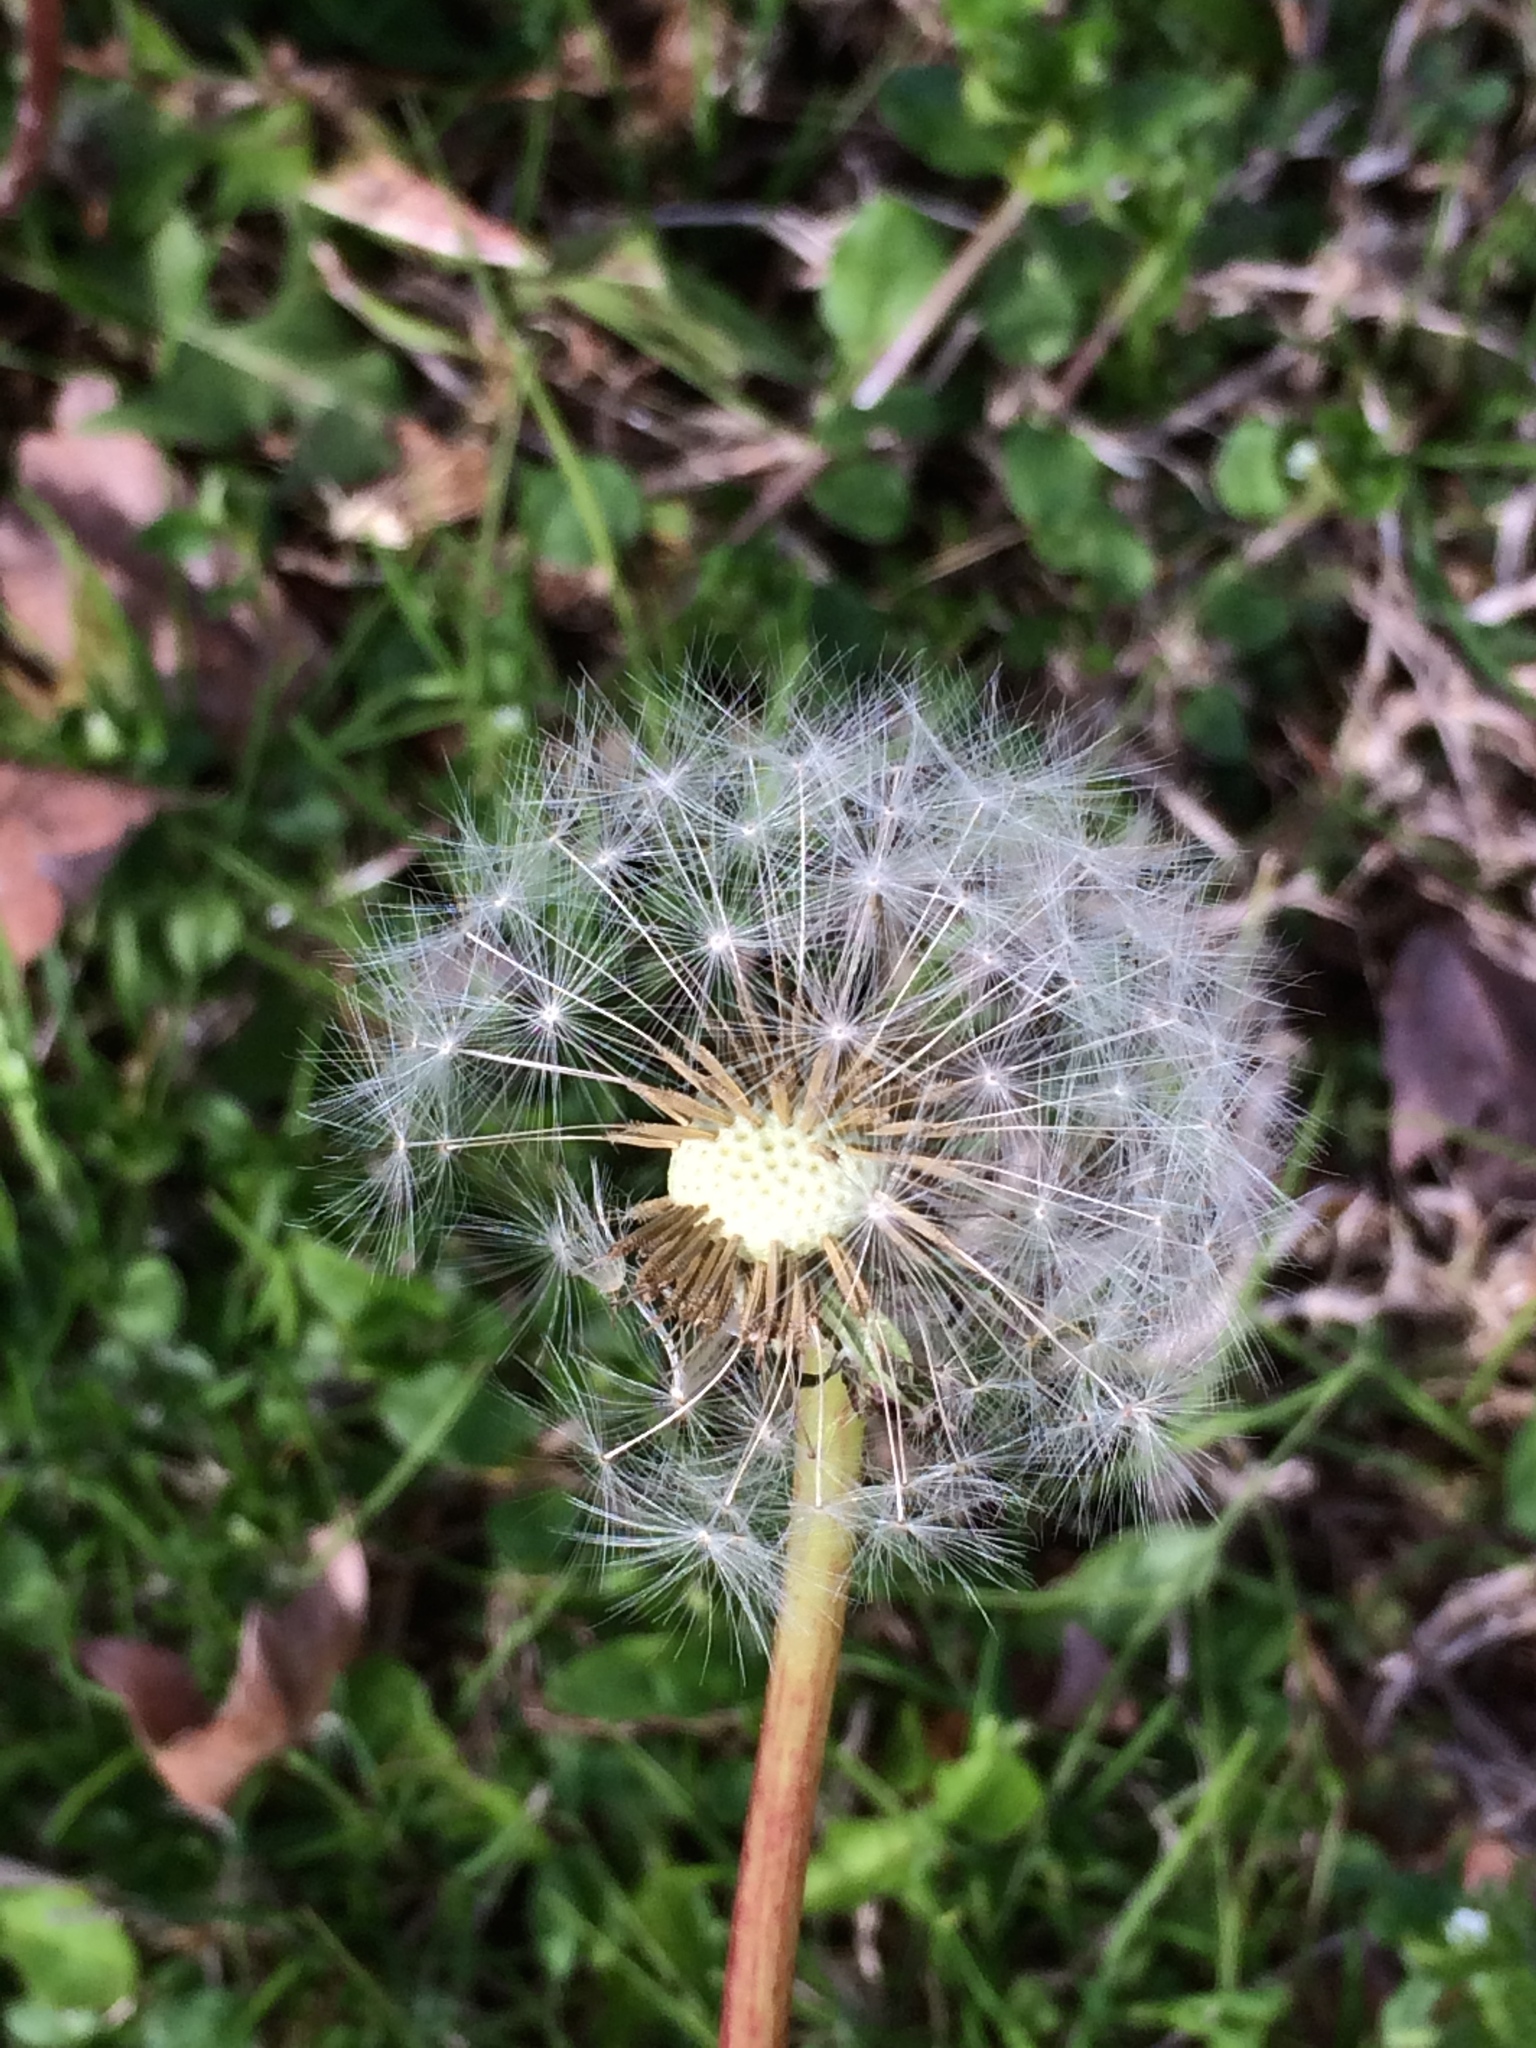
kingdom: Plantae
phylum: Tracheophyta
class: Magnoliopsida
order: Asterales
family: Asteraceae
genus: Taraxacum
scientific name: Taraxacum officinale
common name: Common dandelion
